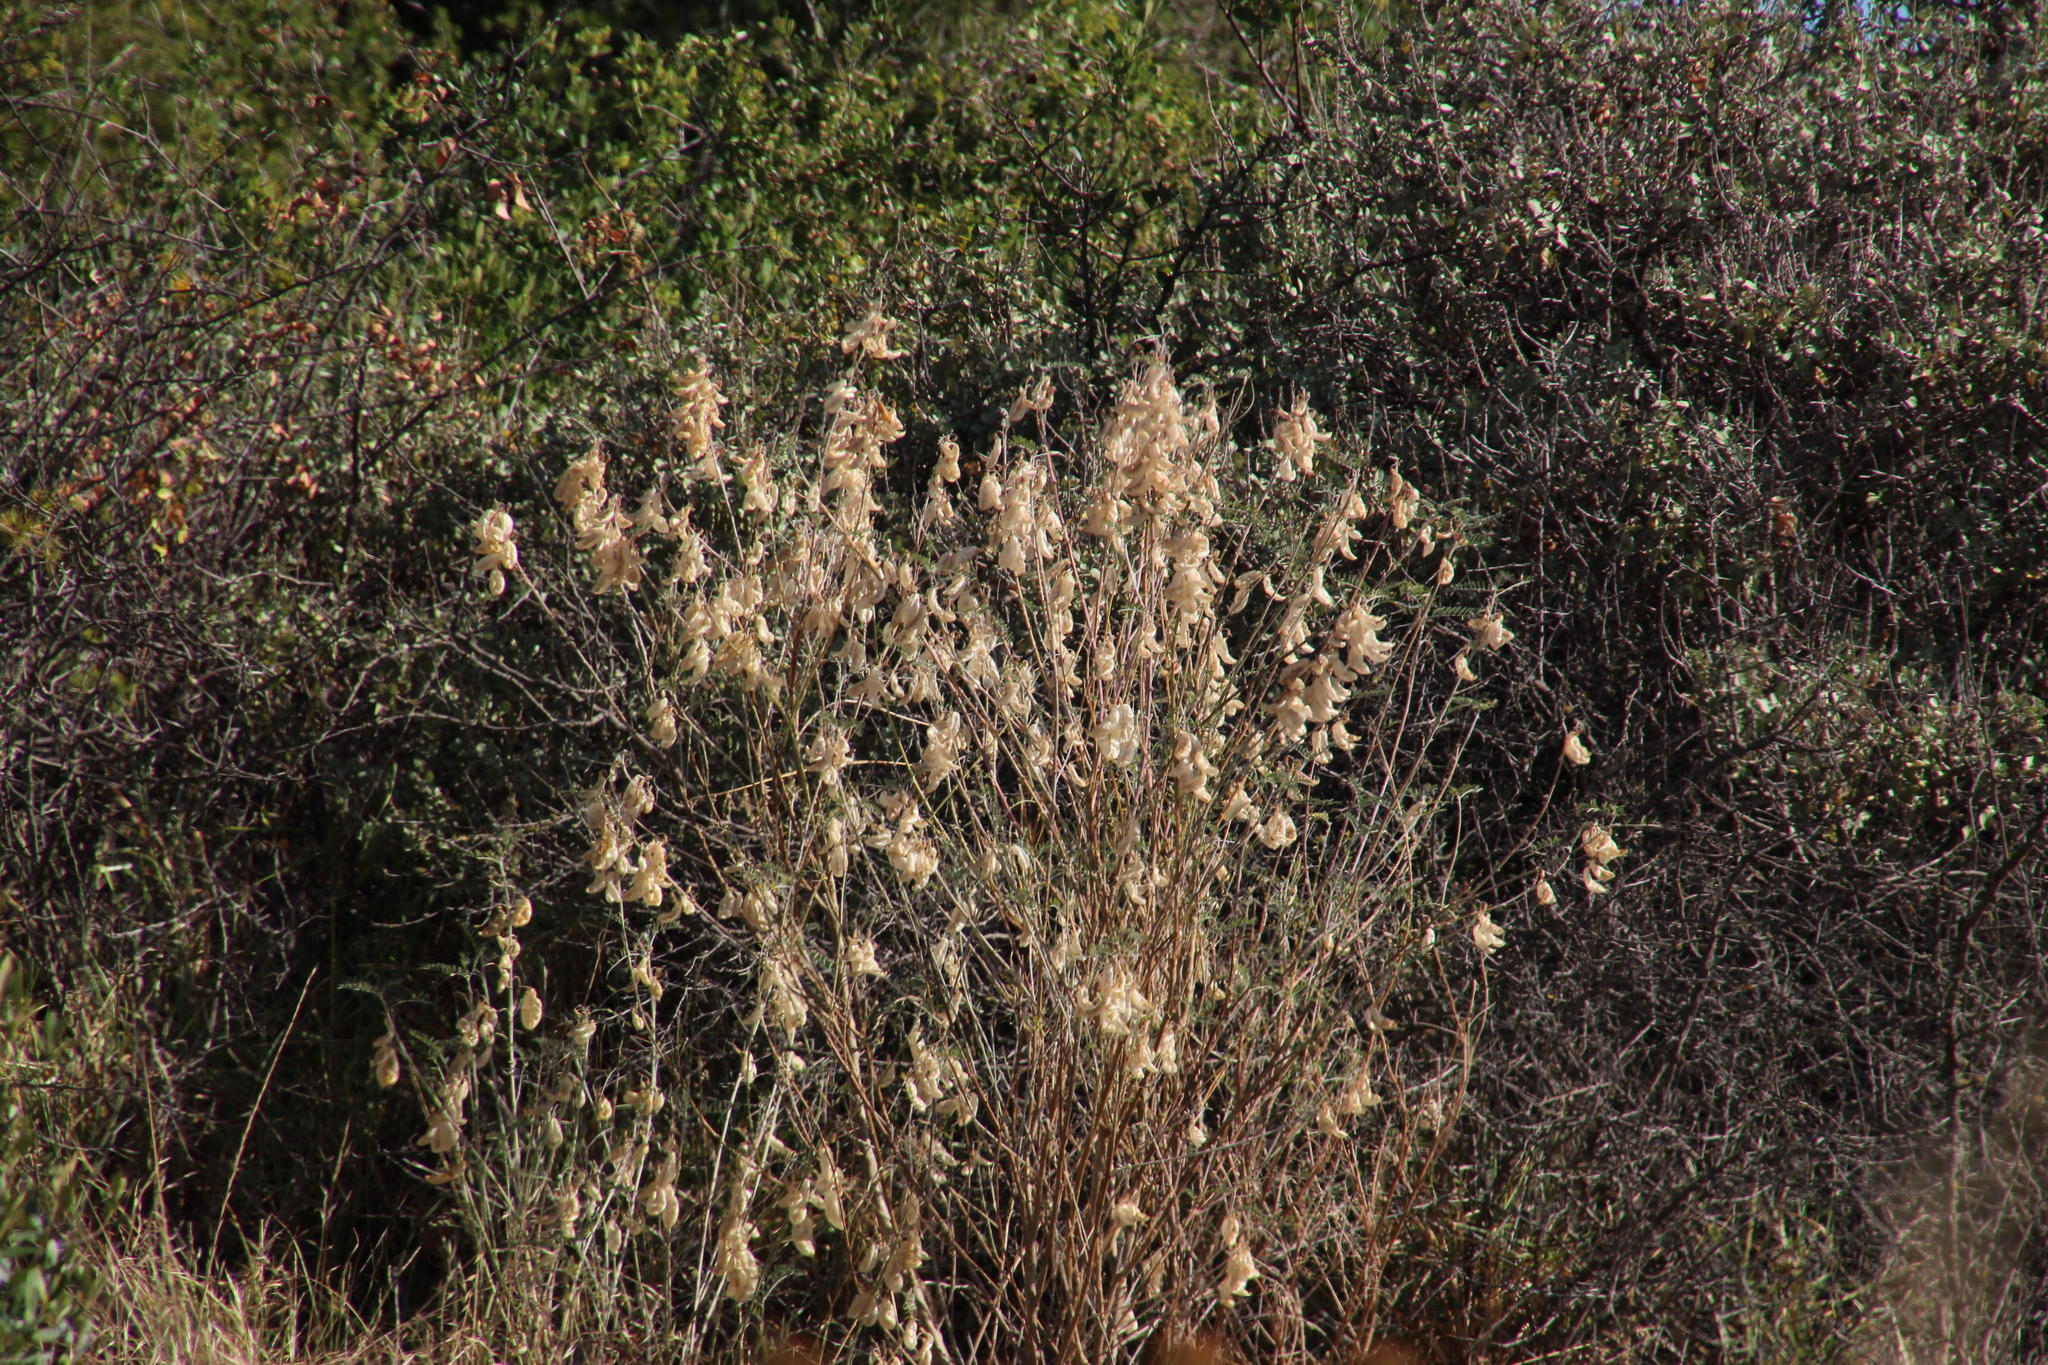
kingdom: Plantae
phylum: Tracheophyta
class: Magnoliopsida
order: Fabales
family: Fabaceae
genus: Lessertia
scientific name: Lessertia frutescens
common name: Balloon-pea
